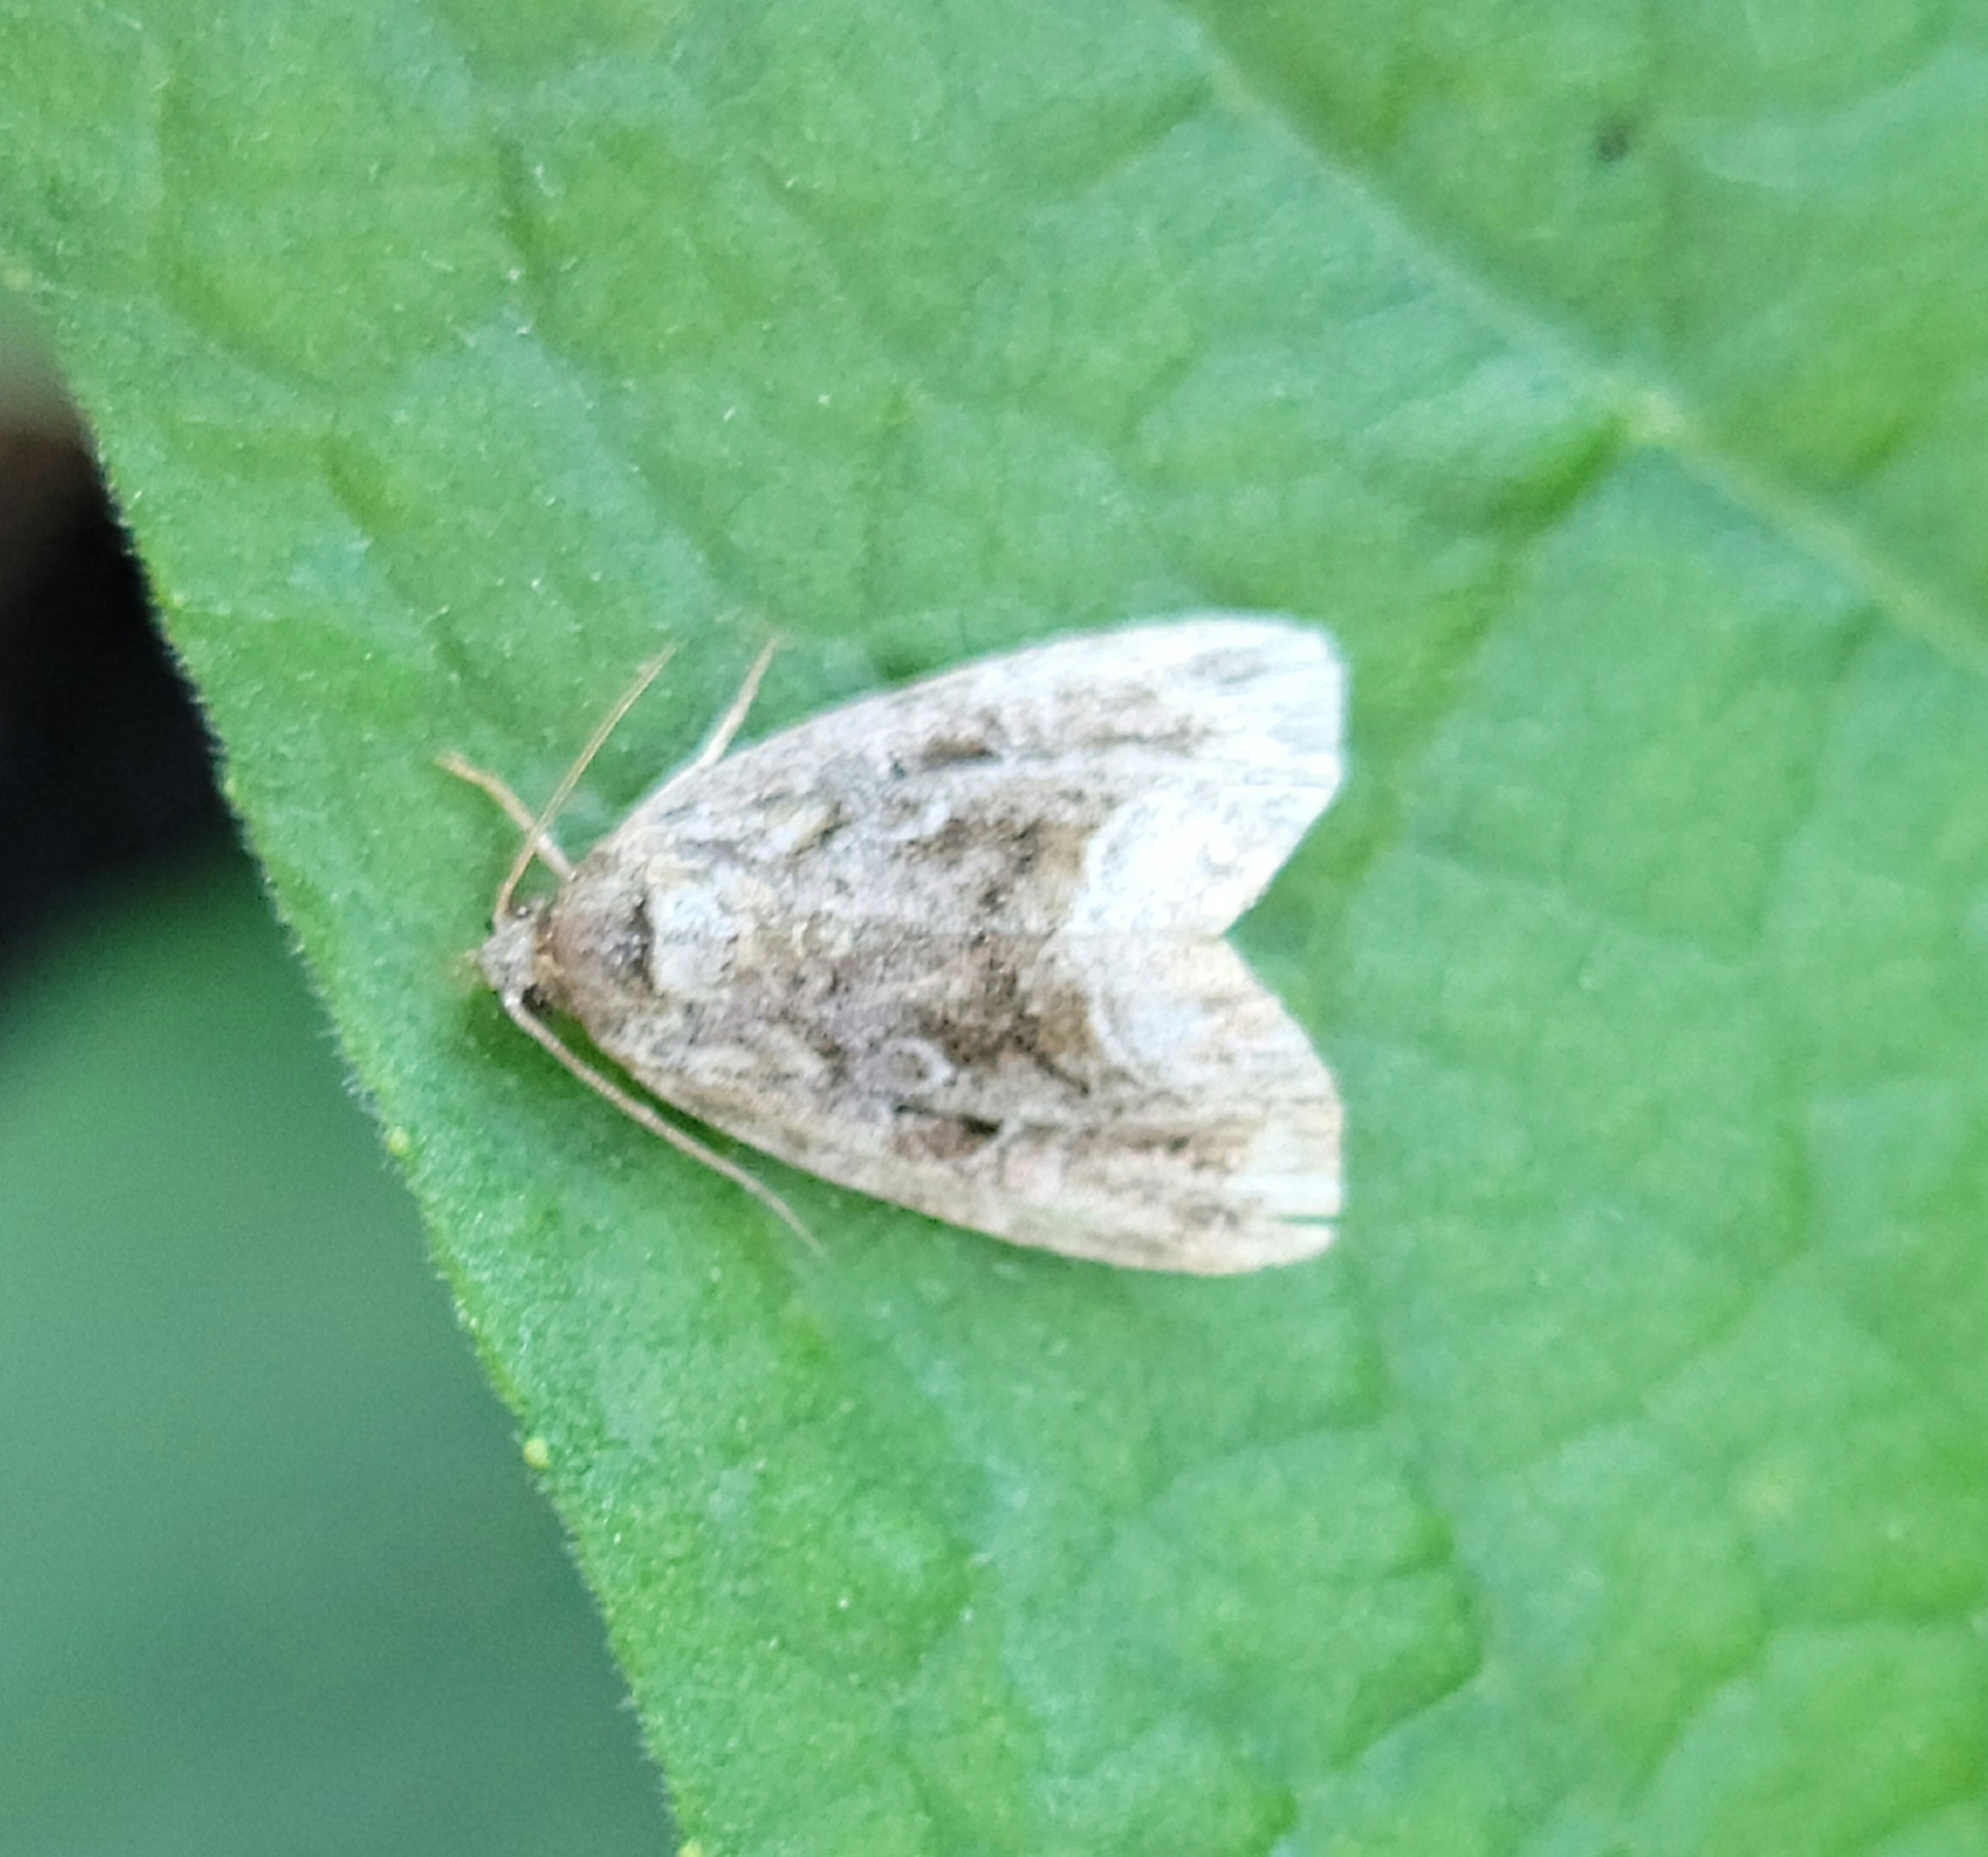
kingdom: Animalia
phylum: Arthropoda
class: Insecta
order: Lepidoptera
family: Noctuidae
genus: Protodeltote
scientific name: Protodeltote muscosula
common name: Large mossy glyph
